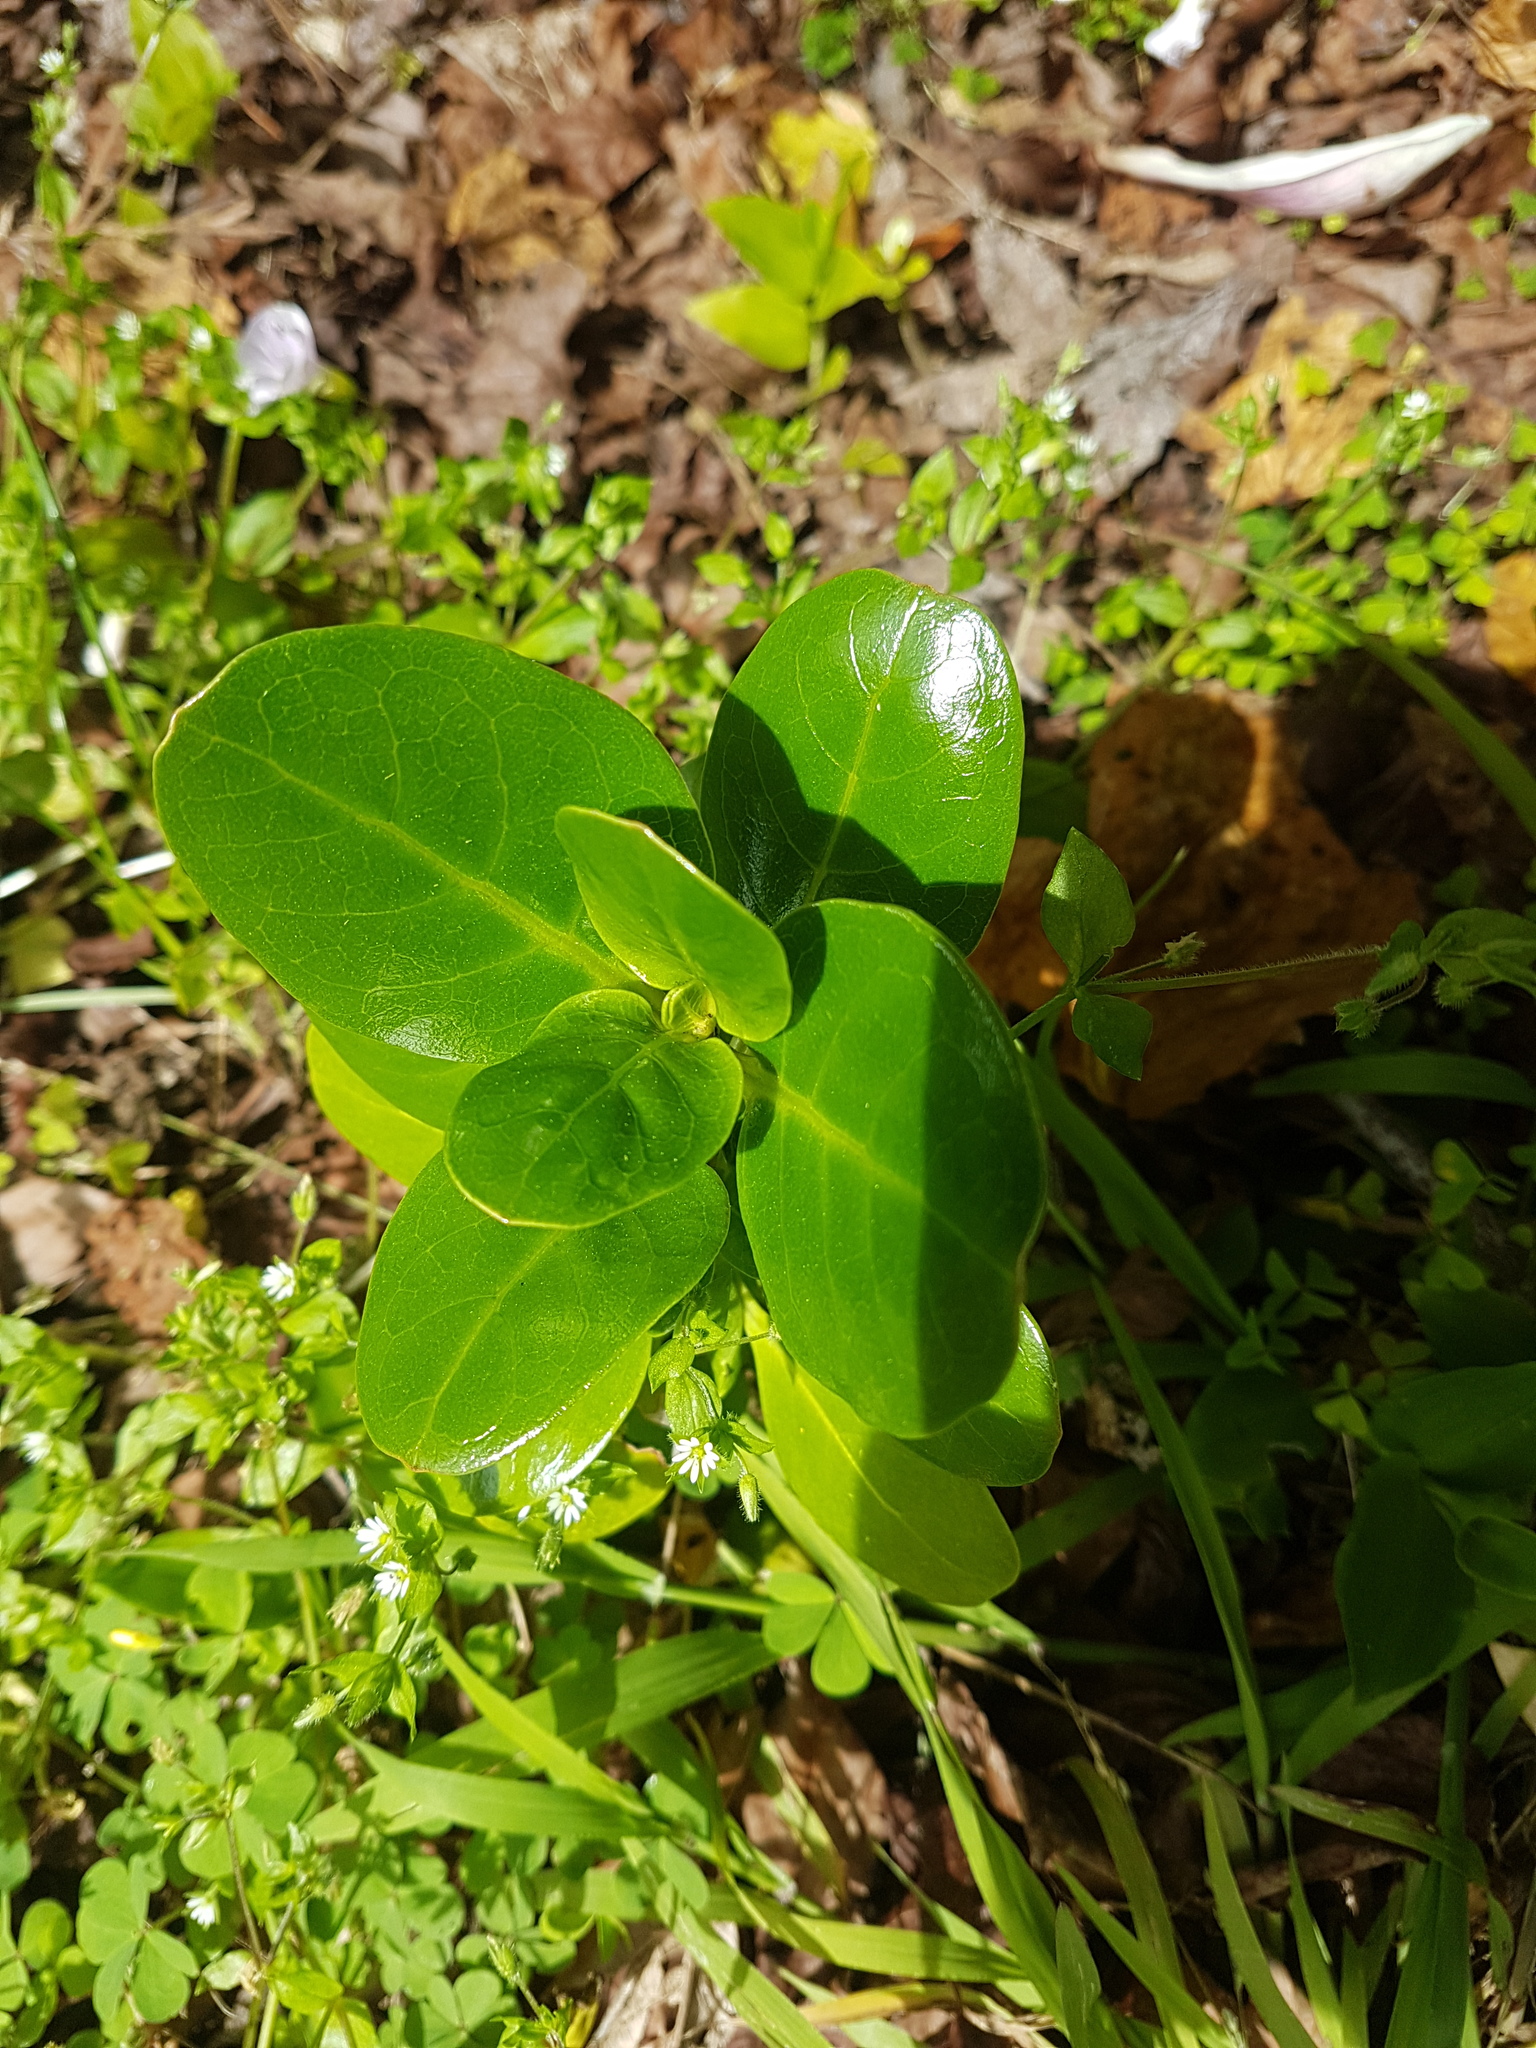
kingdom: Plantae
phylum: Tracheophyta
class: Magnoliopsida
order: Gentianales
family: Rubiaceae
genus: Coprosma
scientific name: Coprosma repens
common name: Tree bedstraw
